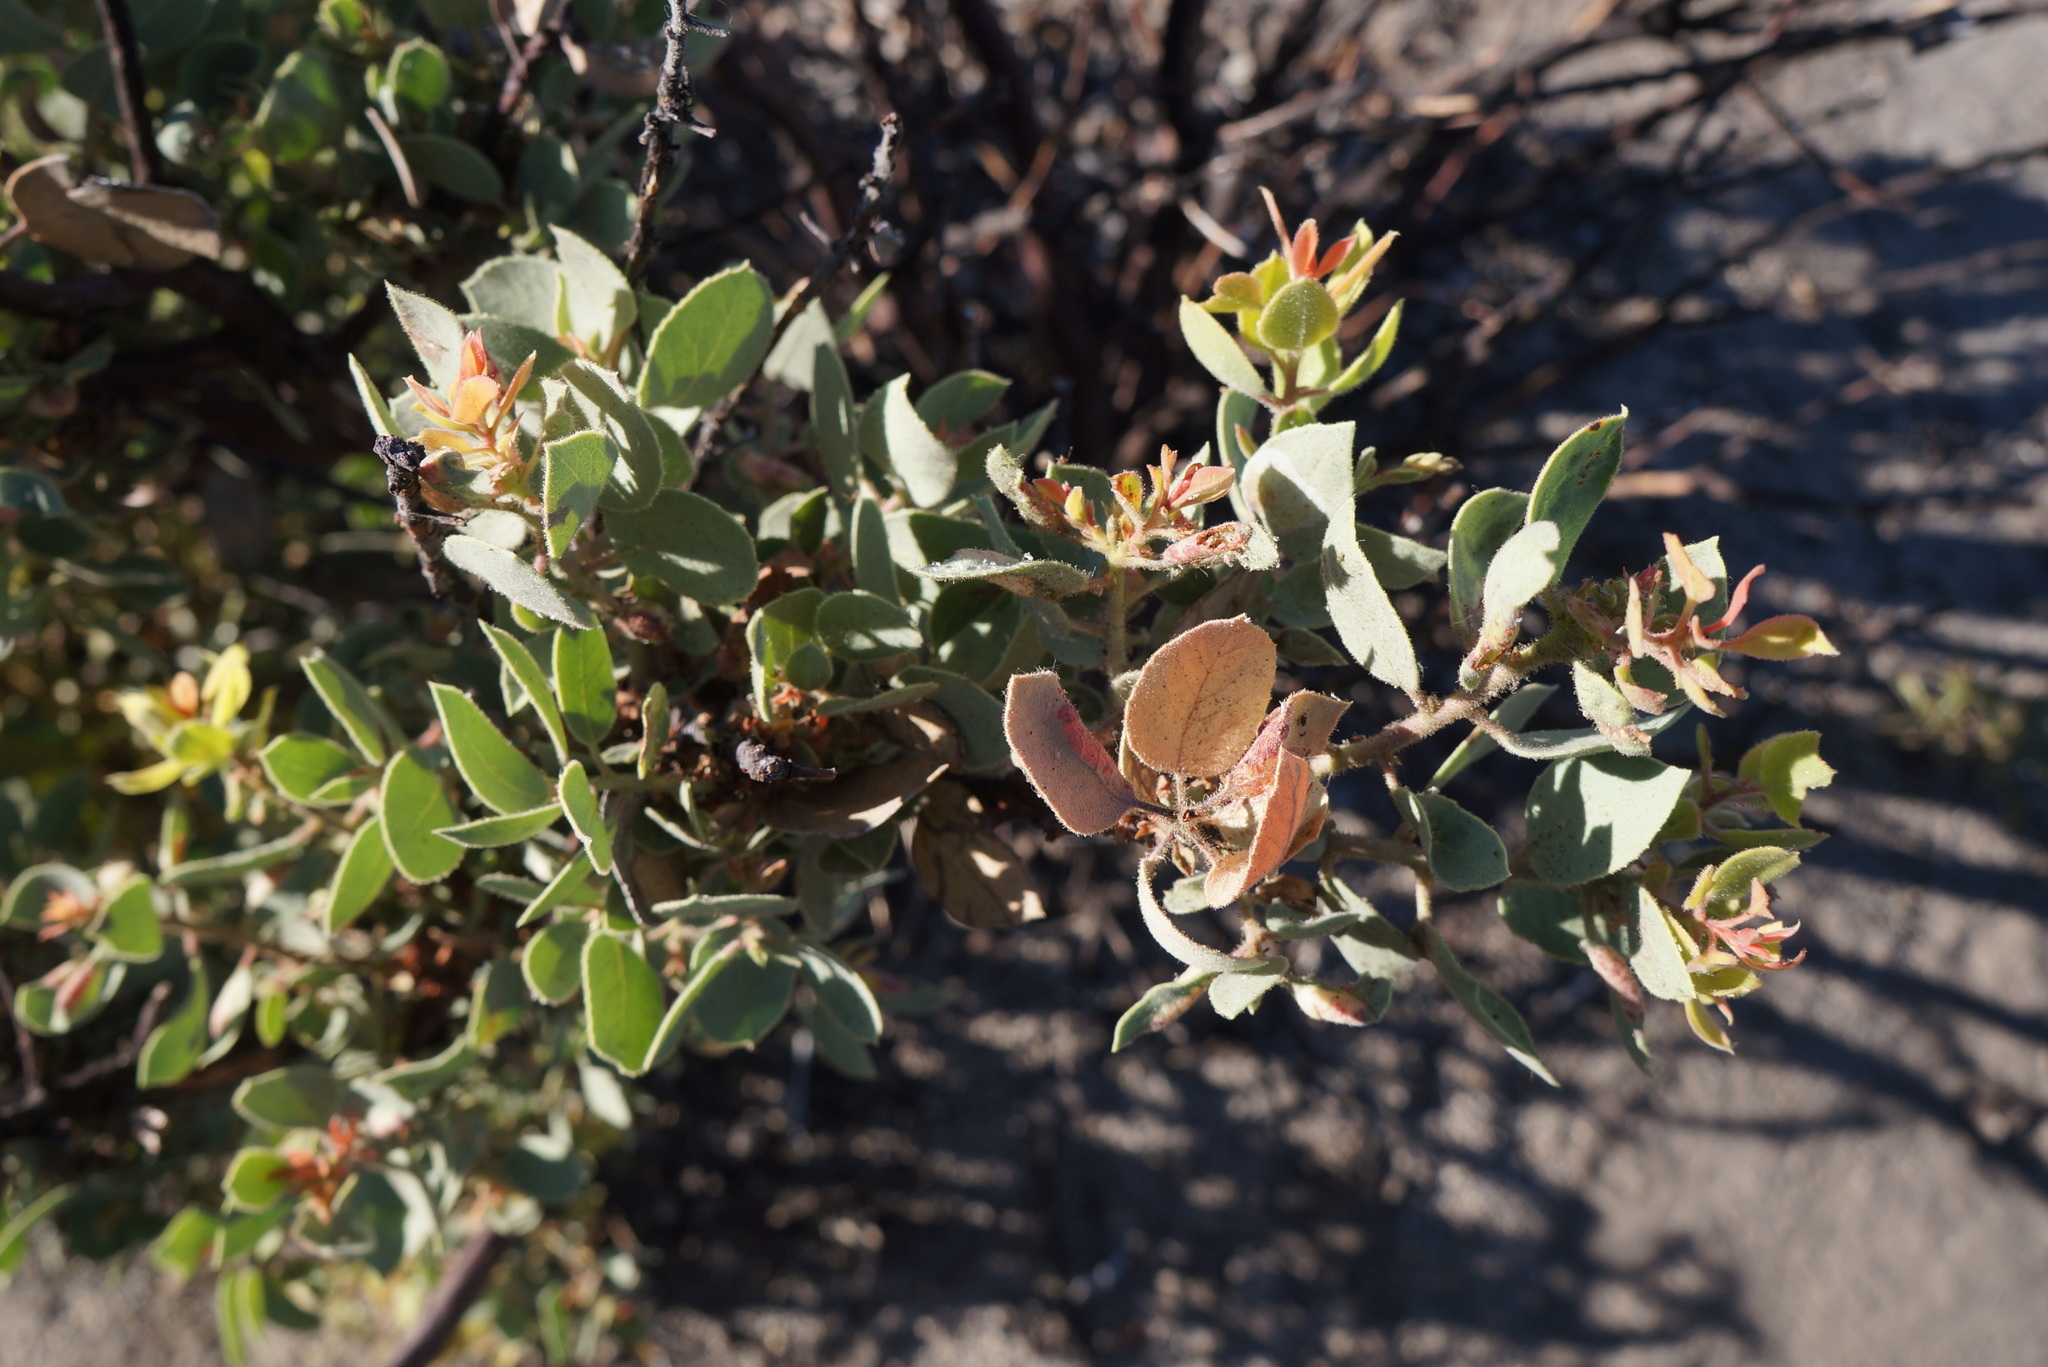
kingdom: Plantae
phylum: Tracheophyta
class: Magnoliopsida
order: Ericales
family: Ericaceae
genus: Arctostaphylos
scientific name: Arctostaphylos viscida
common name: White-leaf manzanita
